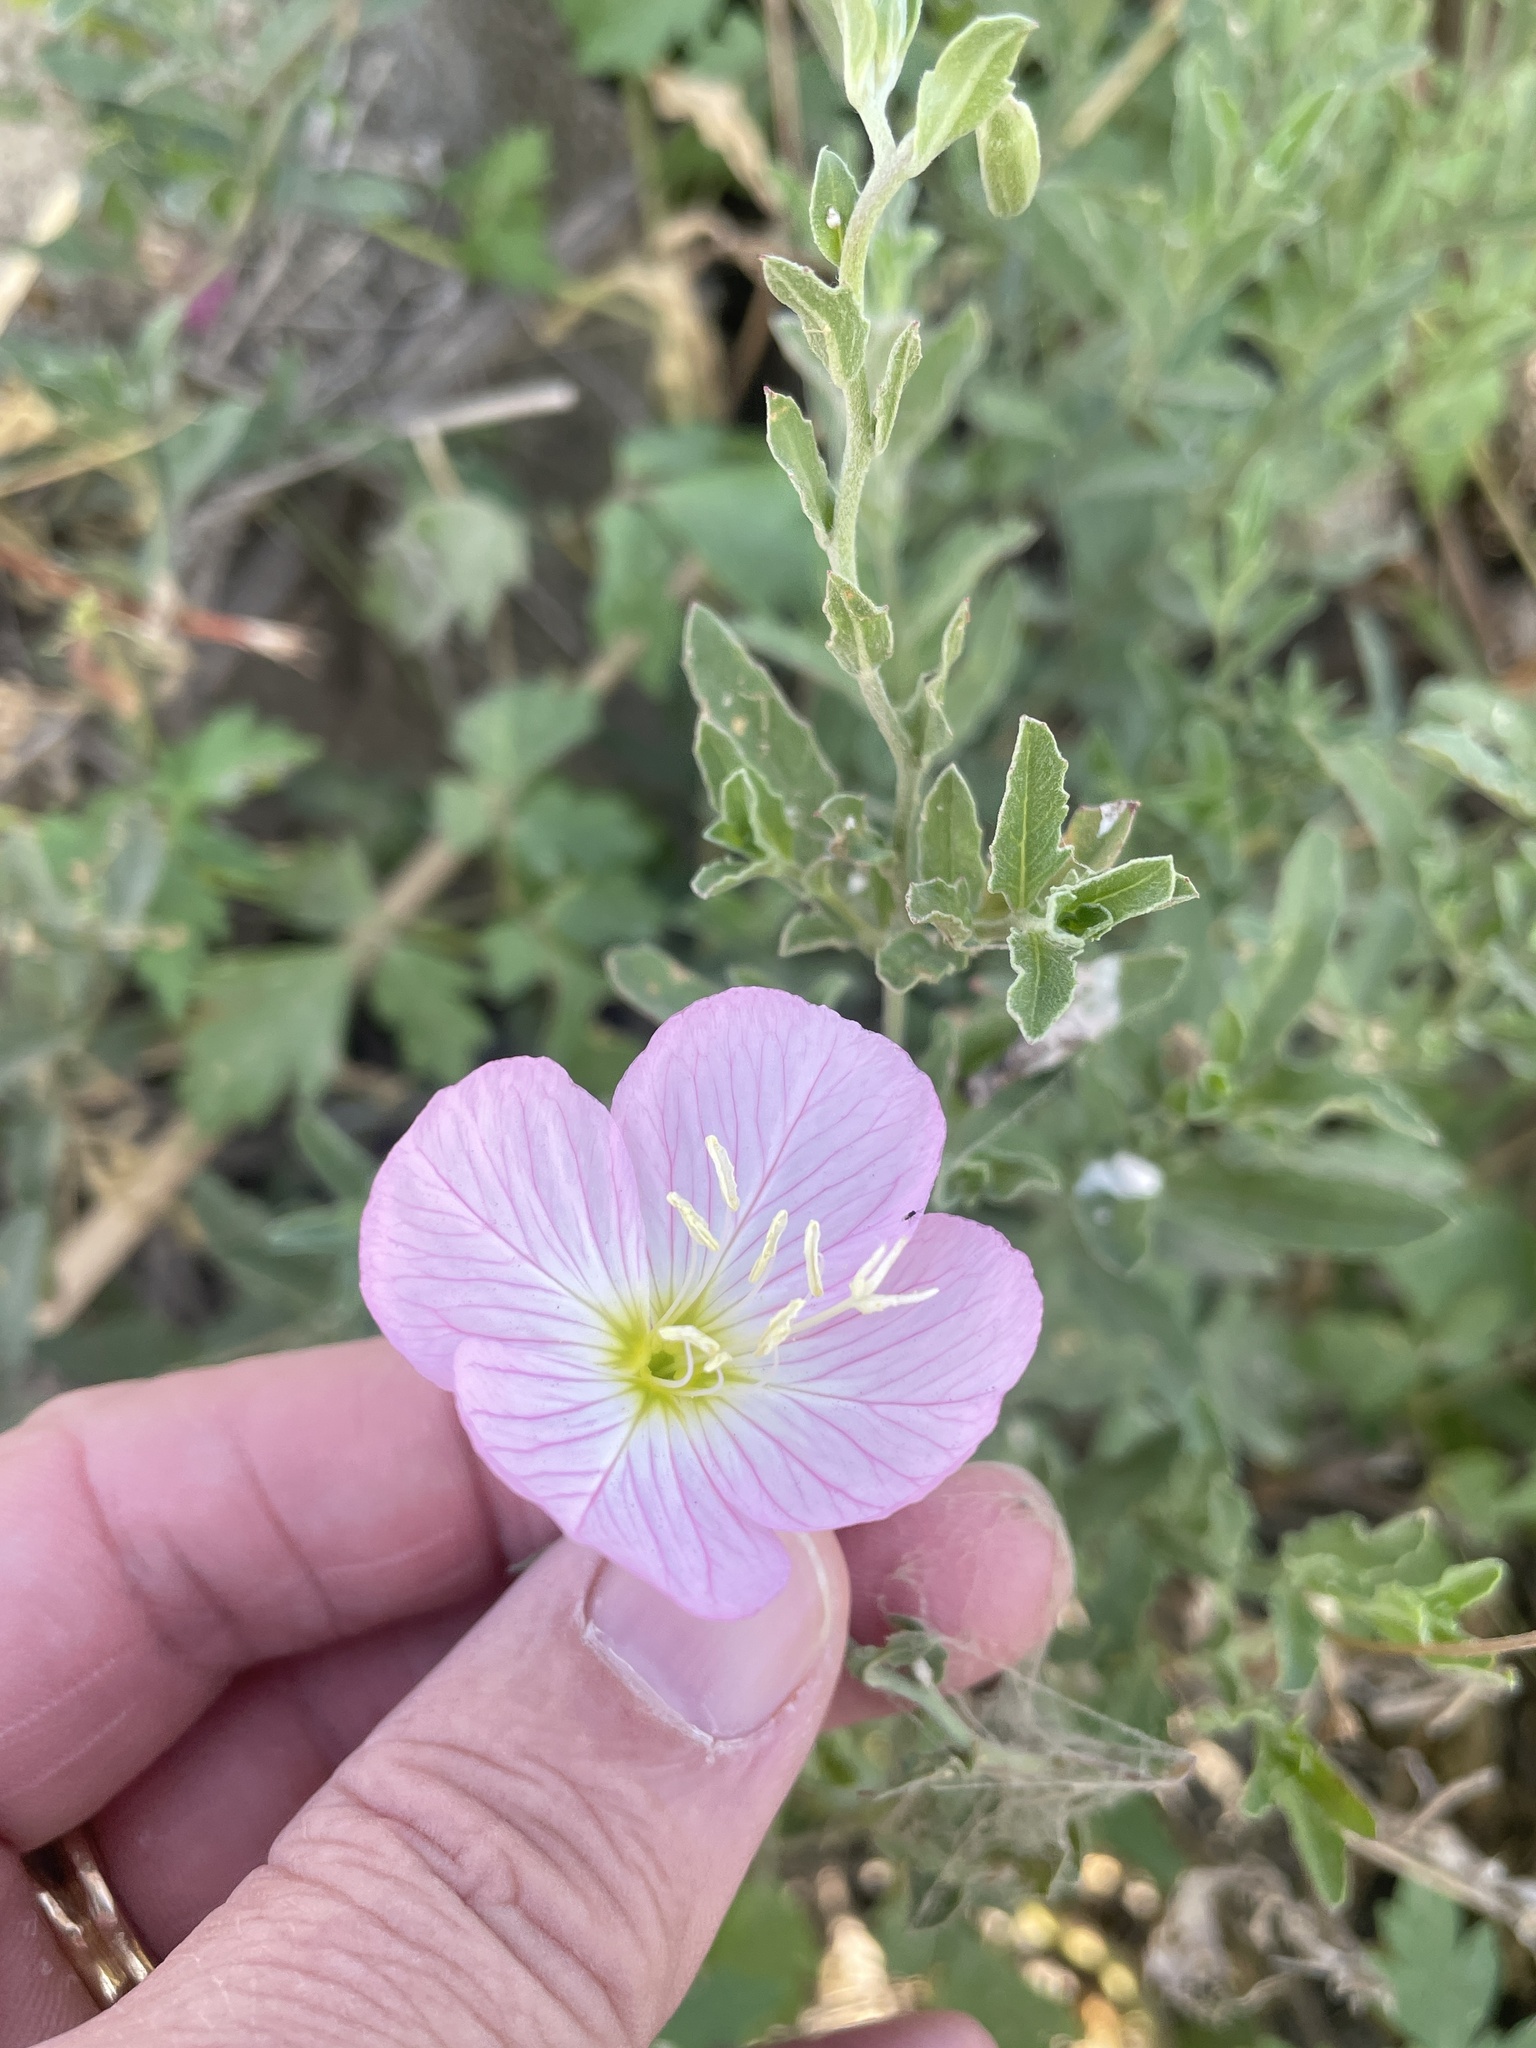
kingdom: Plantae
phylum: Tracheophyta
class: Magnoliopsida
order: Myrtales
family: Onagraceae
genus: Oenothera
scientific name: Oenothera speciosa
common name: White evening-primrose
